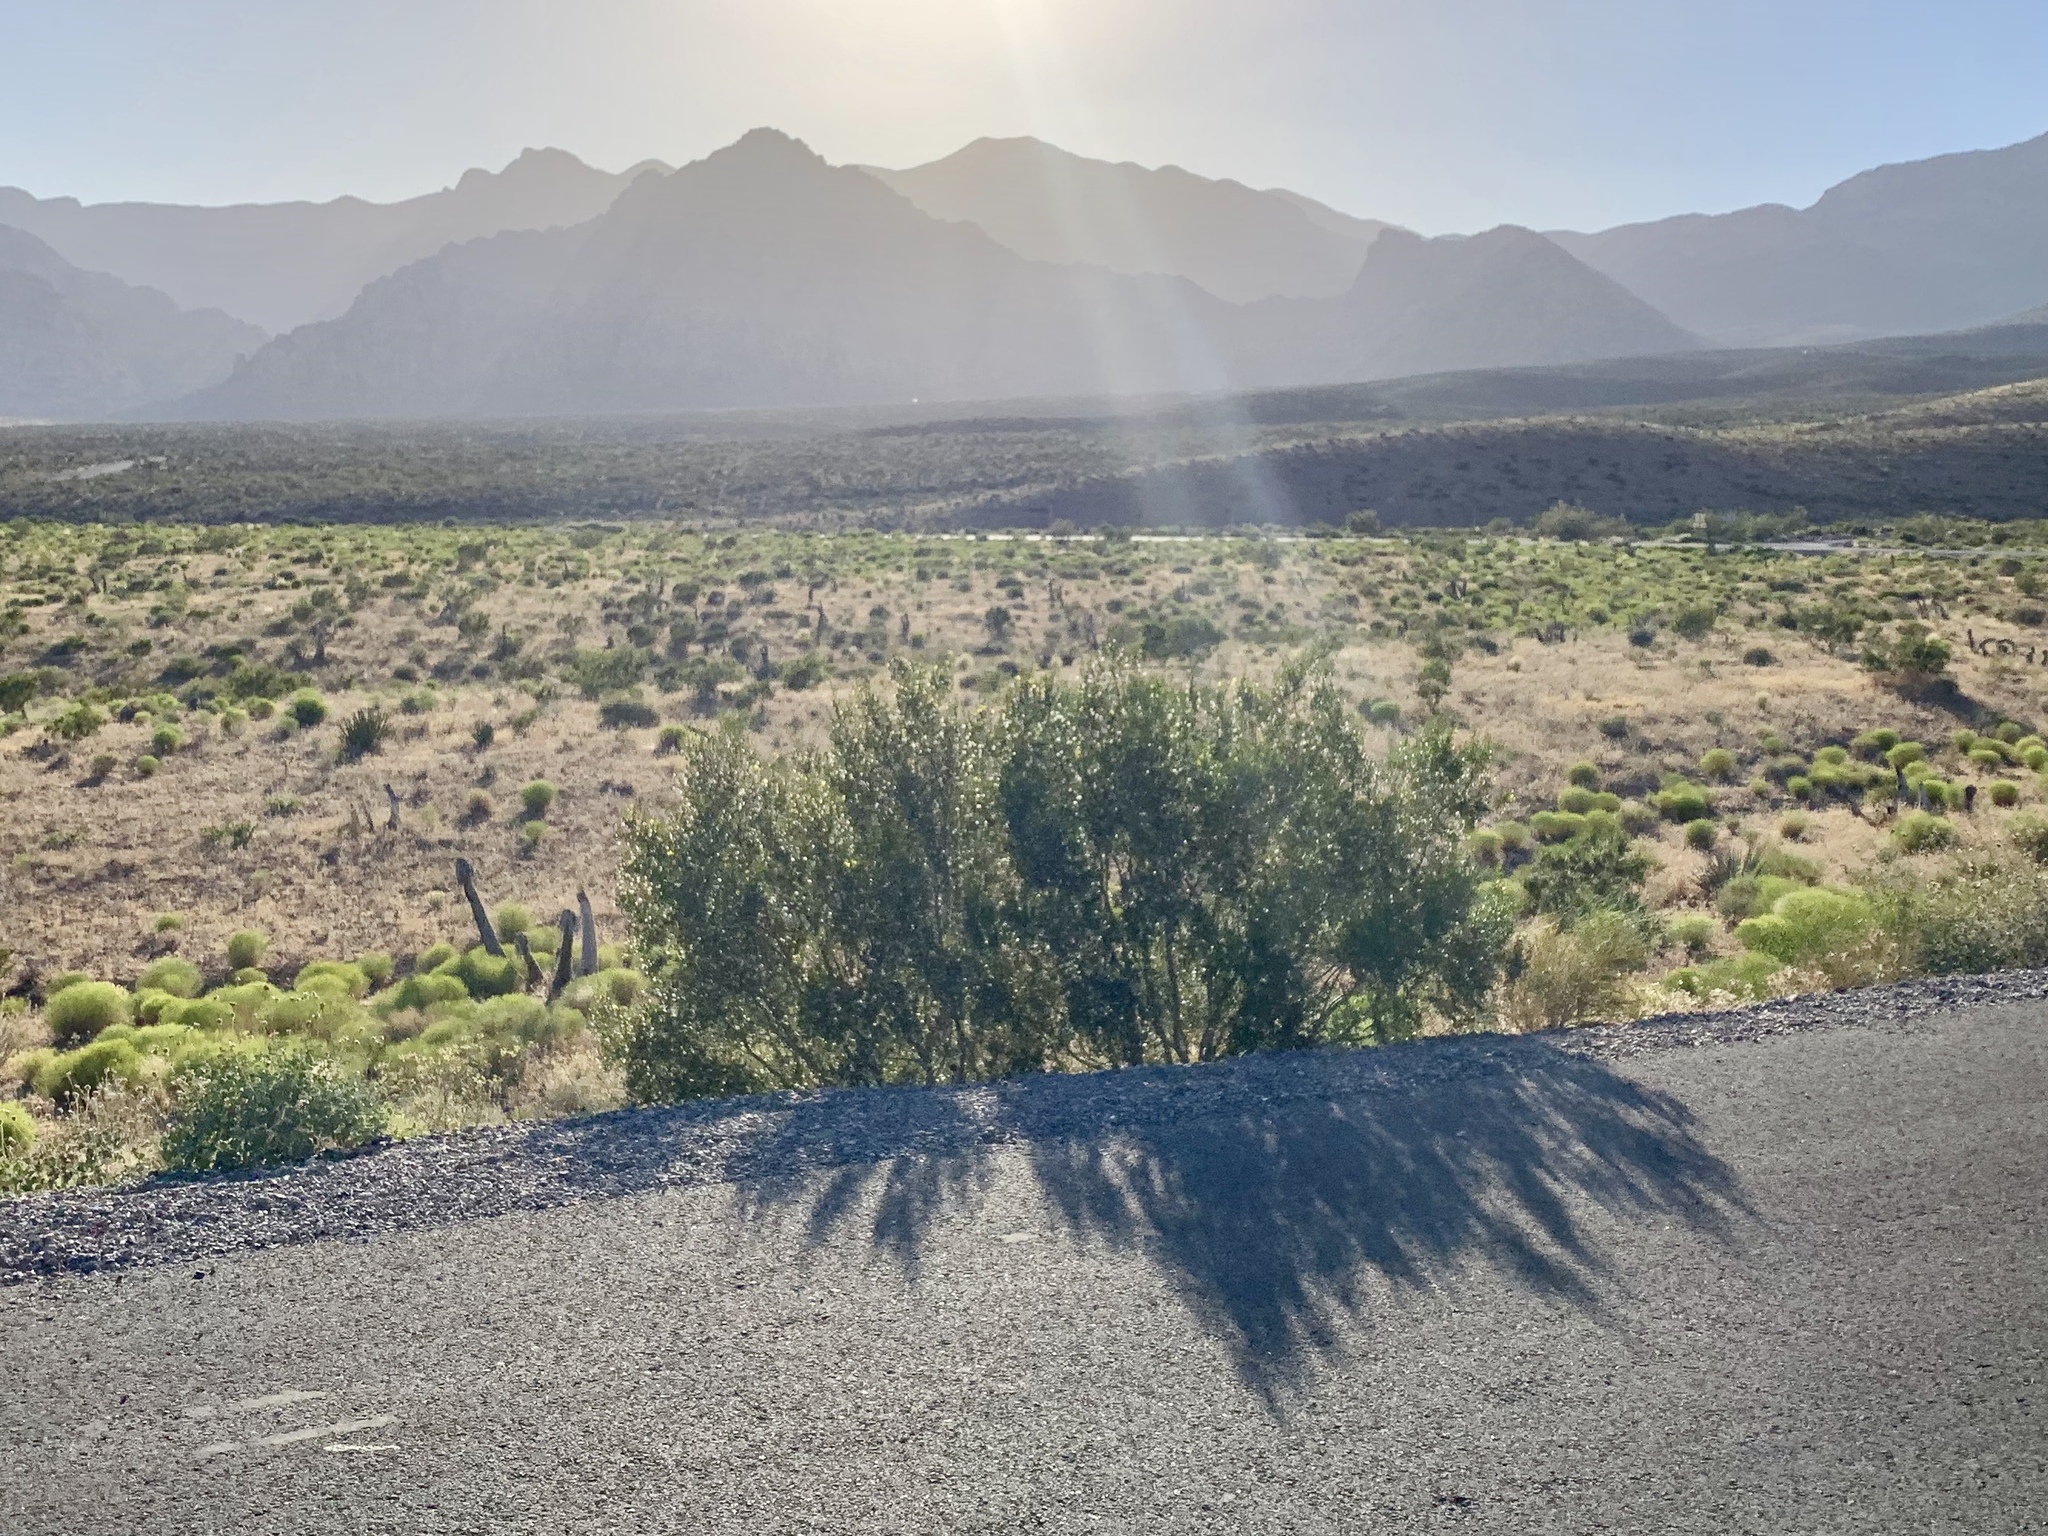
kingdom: Plantae
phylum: Tracheophyta
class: Magnoliopsida
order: Zygophyllales
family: Zygophyllaceae
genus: Larrea
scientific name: Larrea tridentata
